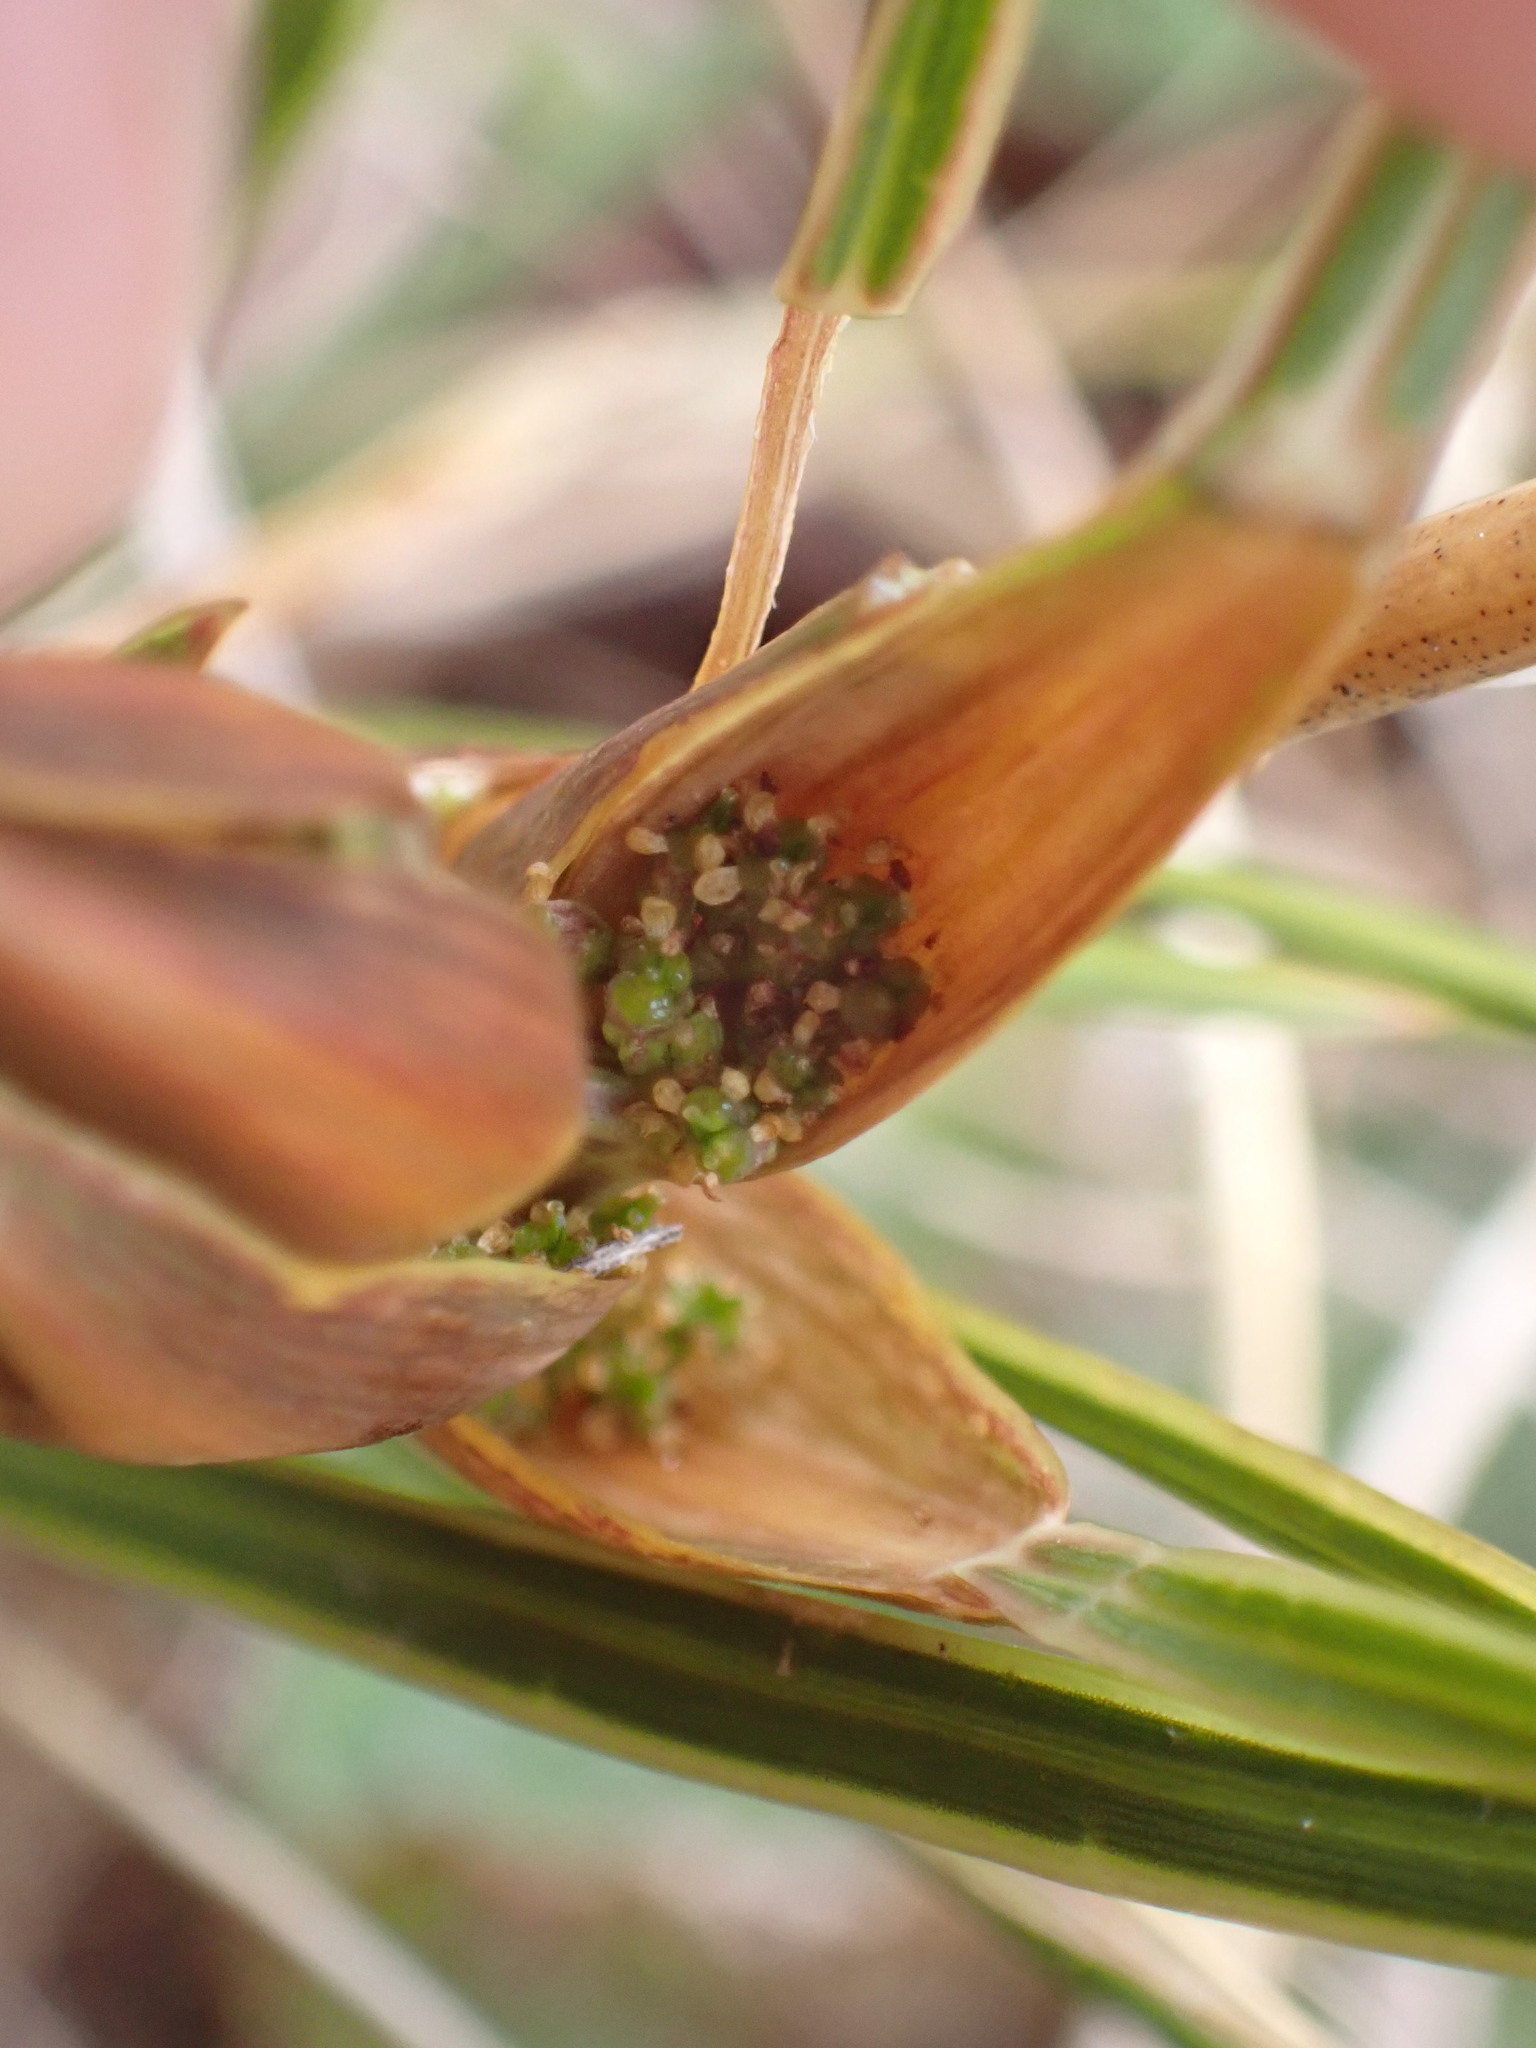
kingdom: Plantae
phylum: Tracheophyta
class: Magnoliopsida
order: Apiales
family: Apiaceae
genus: Aciphylla
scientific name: Aciphylla lyallii
